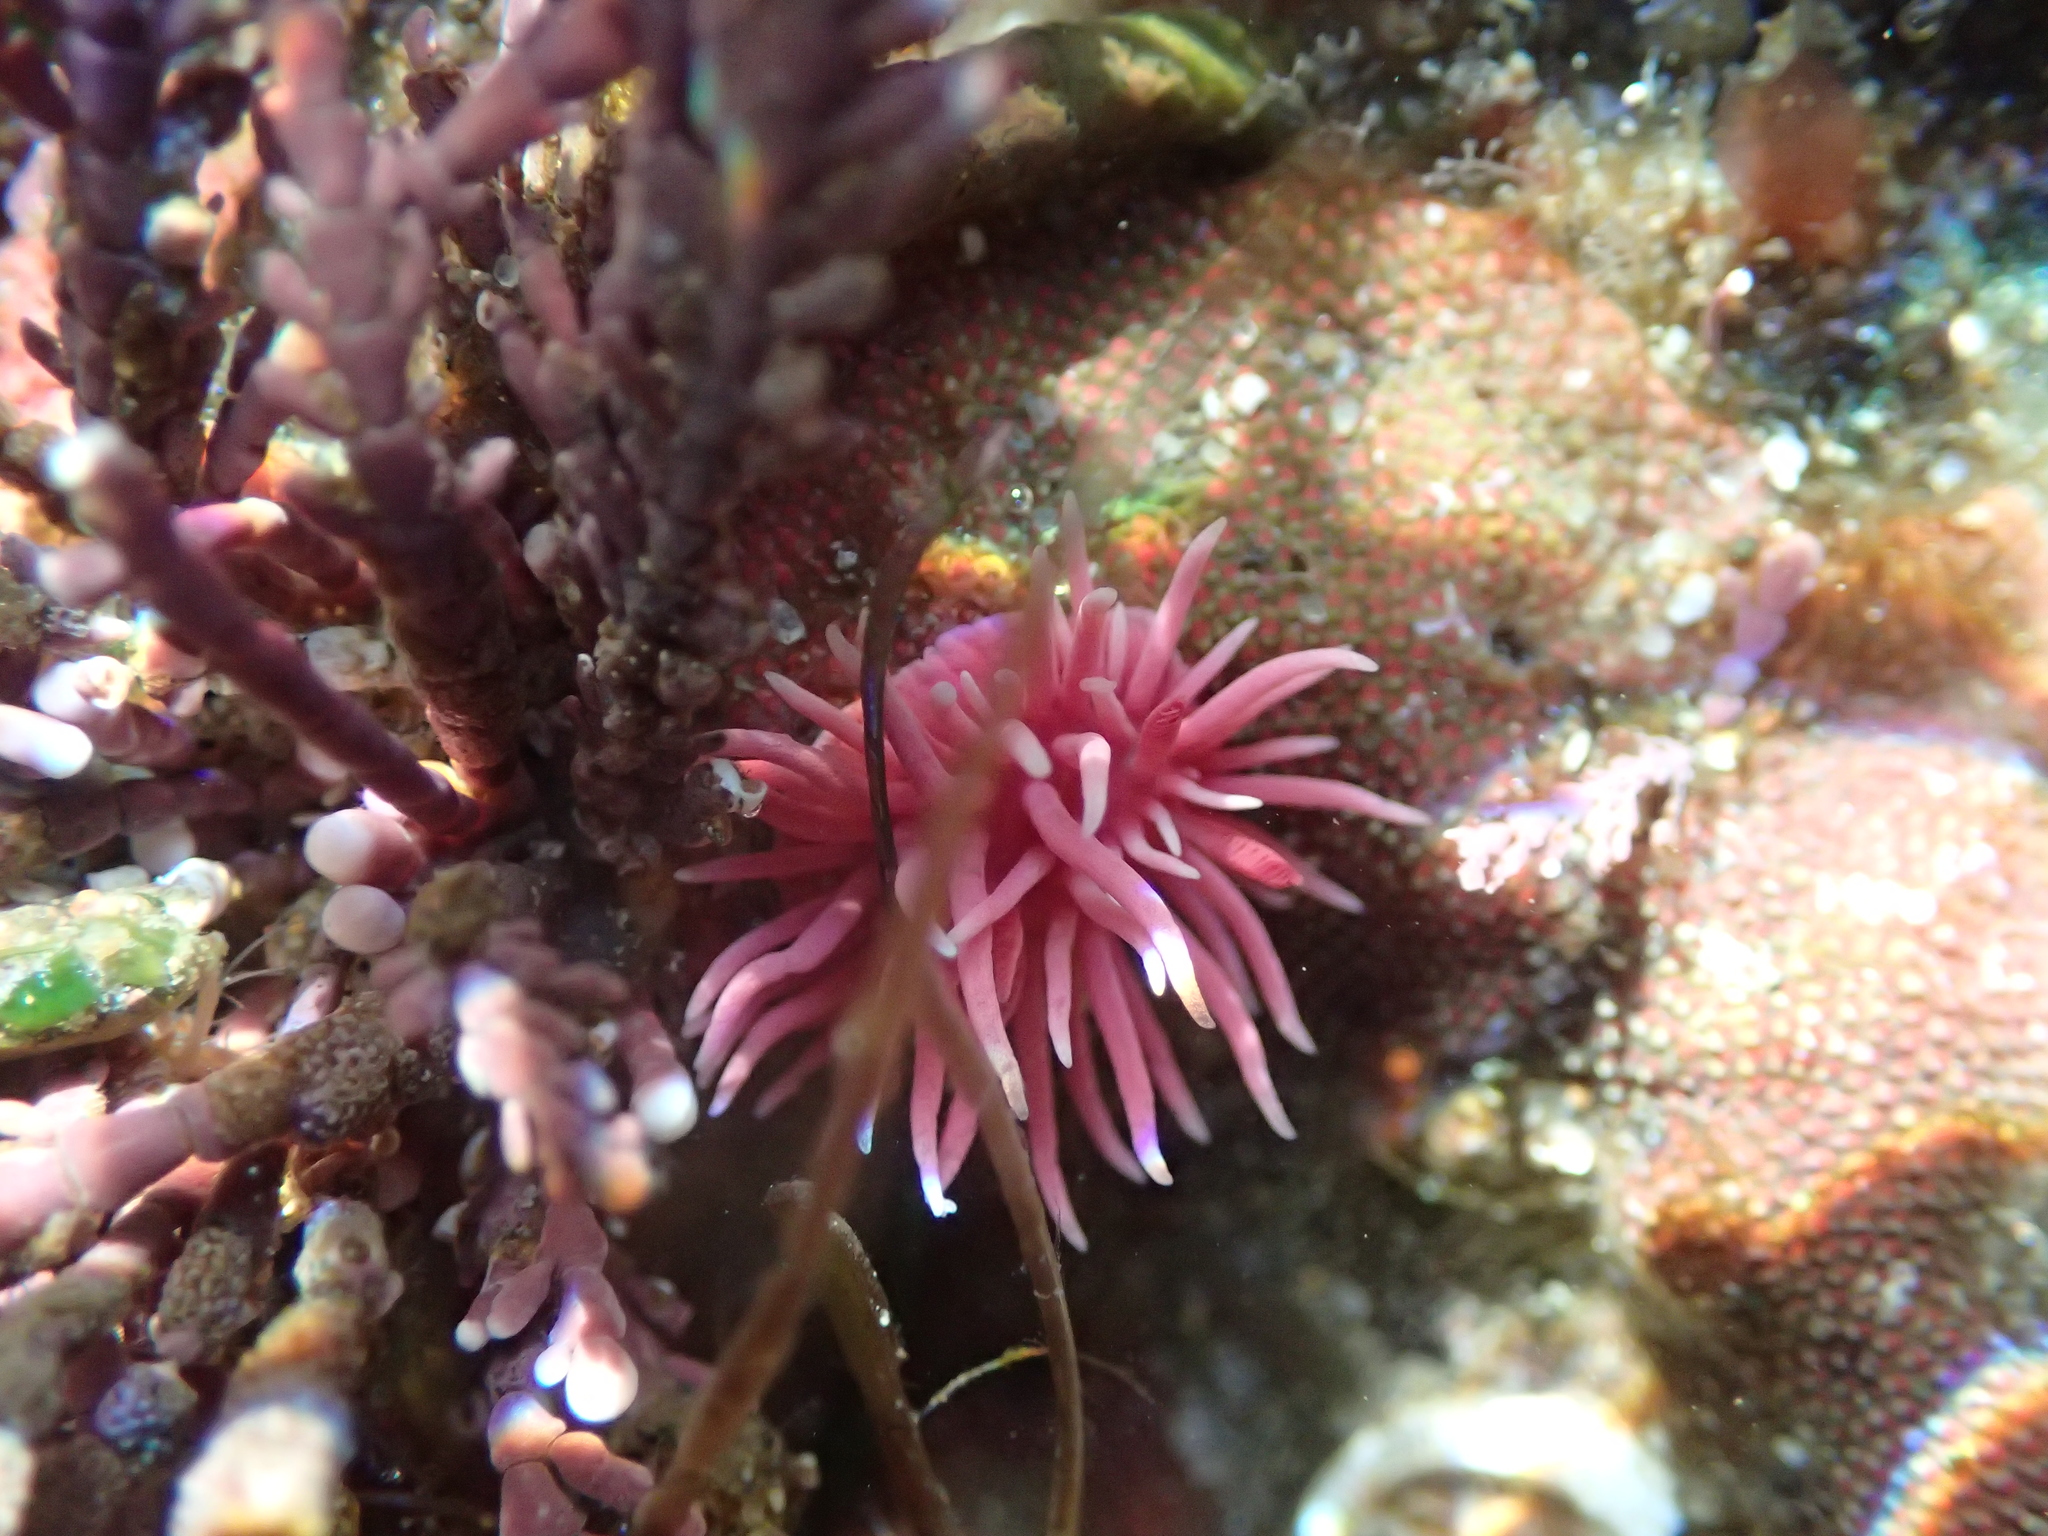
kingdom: Animalia
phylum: Mollusca
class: Gastropoda
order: Nudibranchia
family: Goniodorididae
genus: Okenia
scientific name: Okenia
